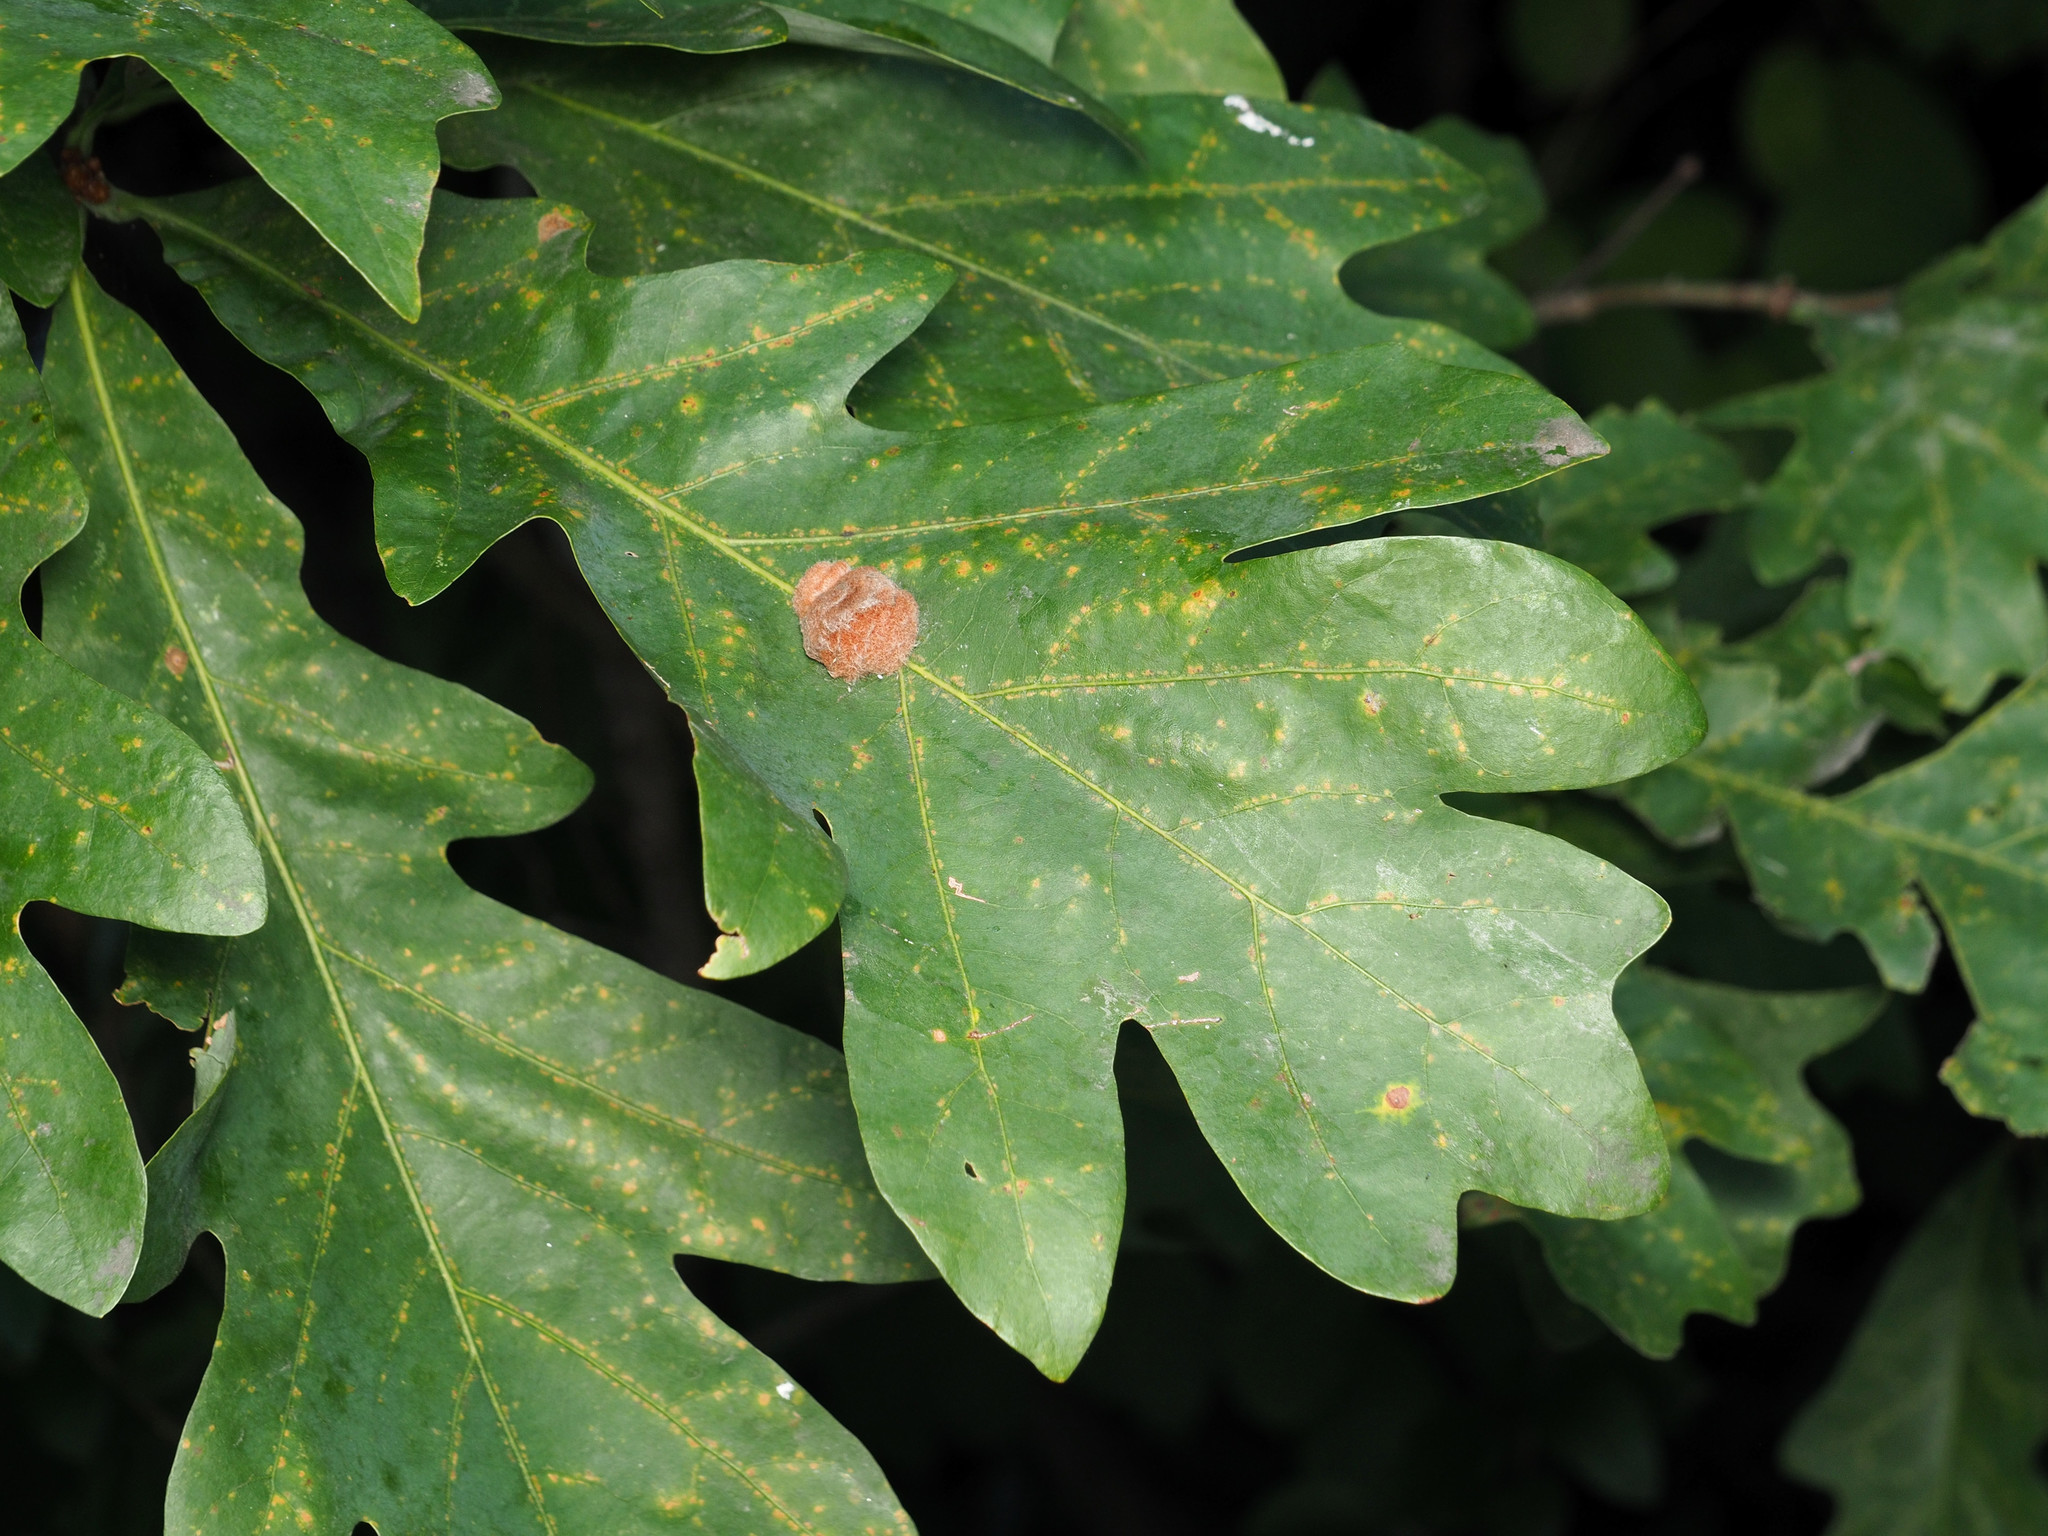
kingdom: Animalia
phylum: Arthropoda
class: Insecta
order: Hymenoptera
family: Cynipidae
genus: Andricus
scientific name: Andricus quercusflocci
